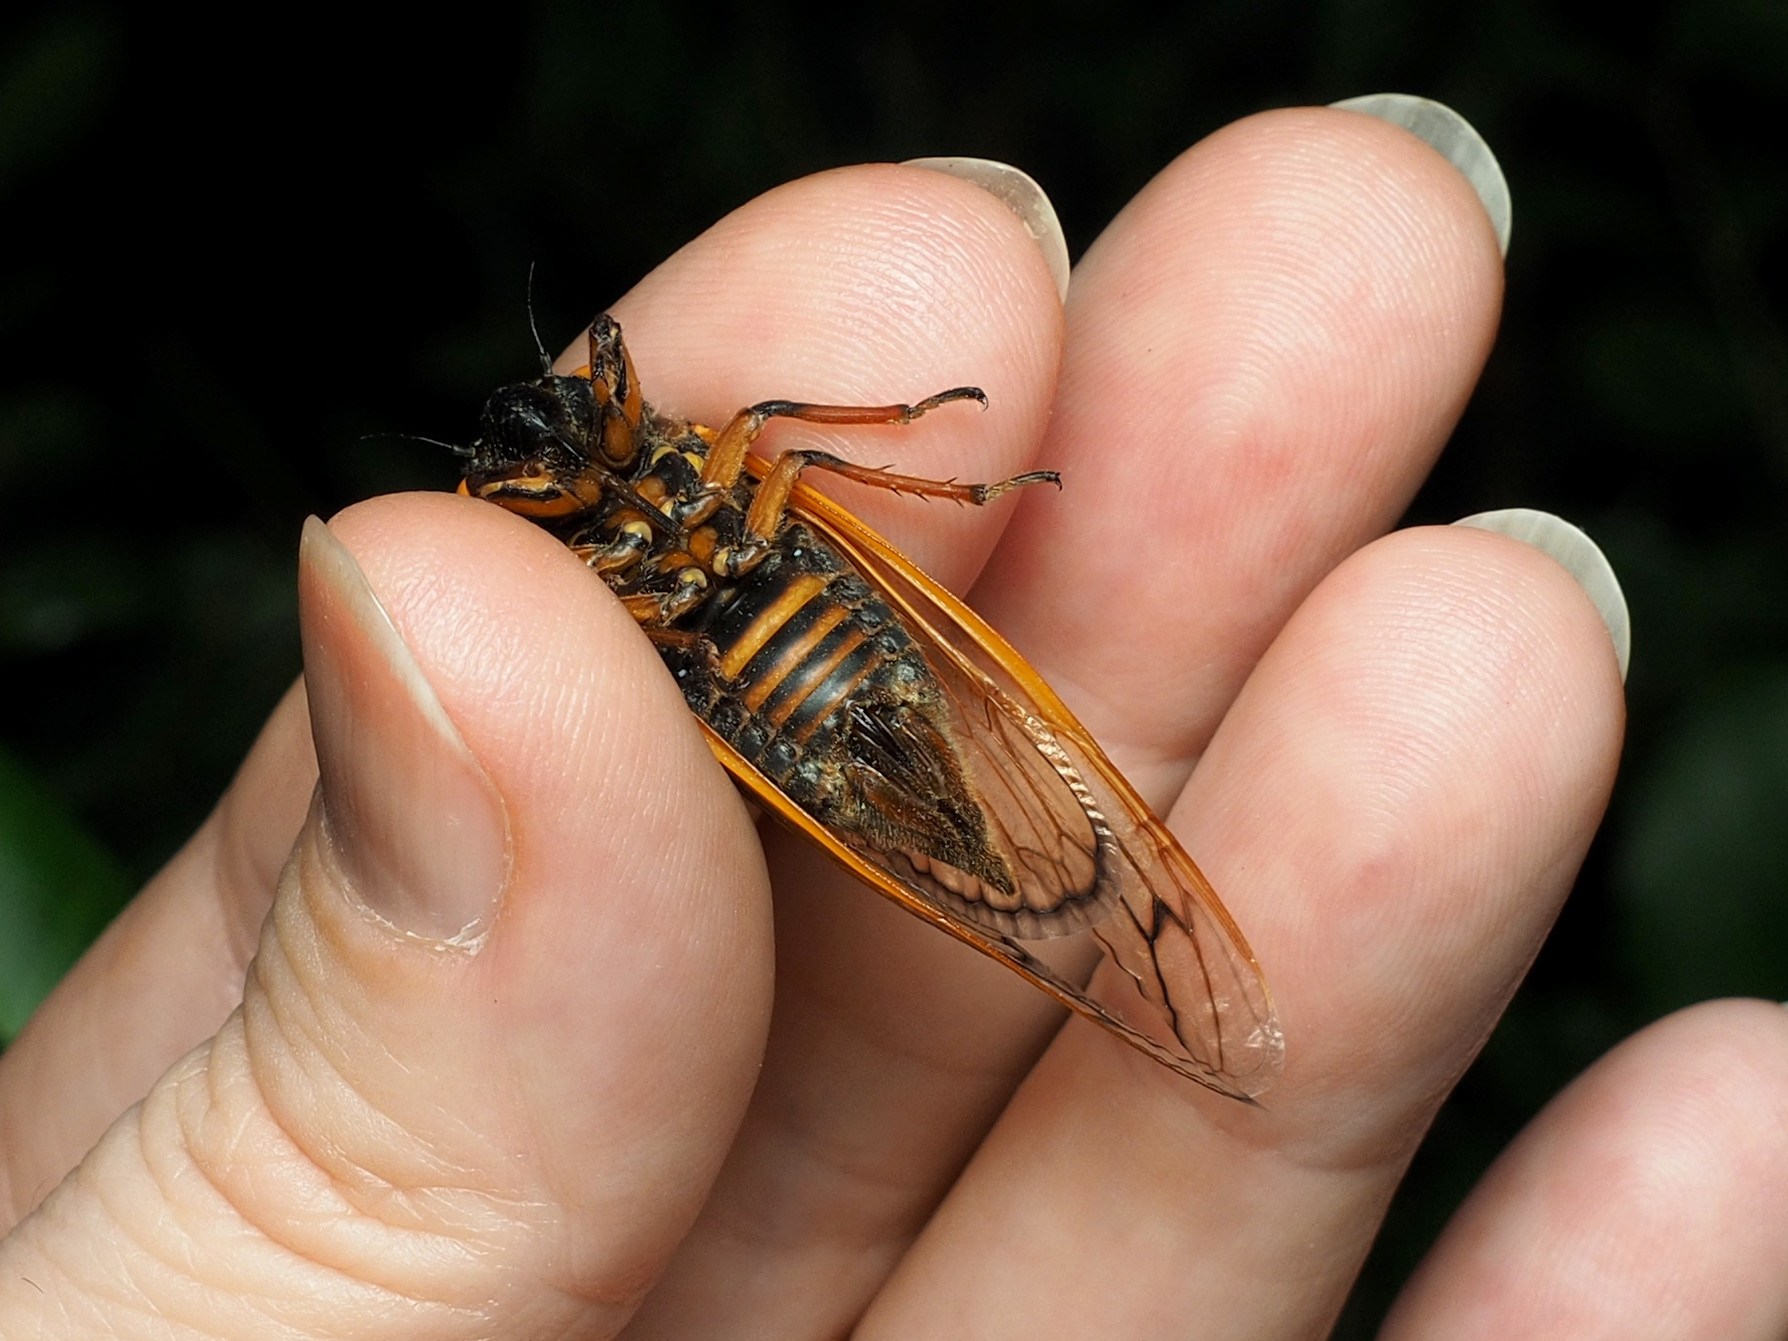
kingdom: Animalia
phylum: Arthropoda
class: Insecta
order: Hemiptera
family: Cicadidae
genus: Magicicada
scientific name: Magicicada septendecim
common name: Periodical cicada
